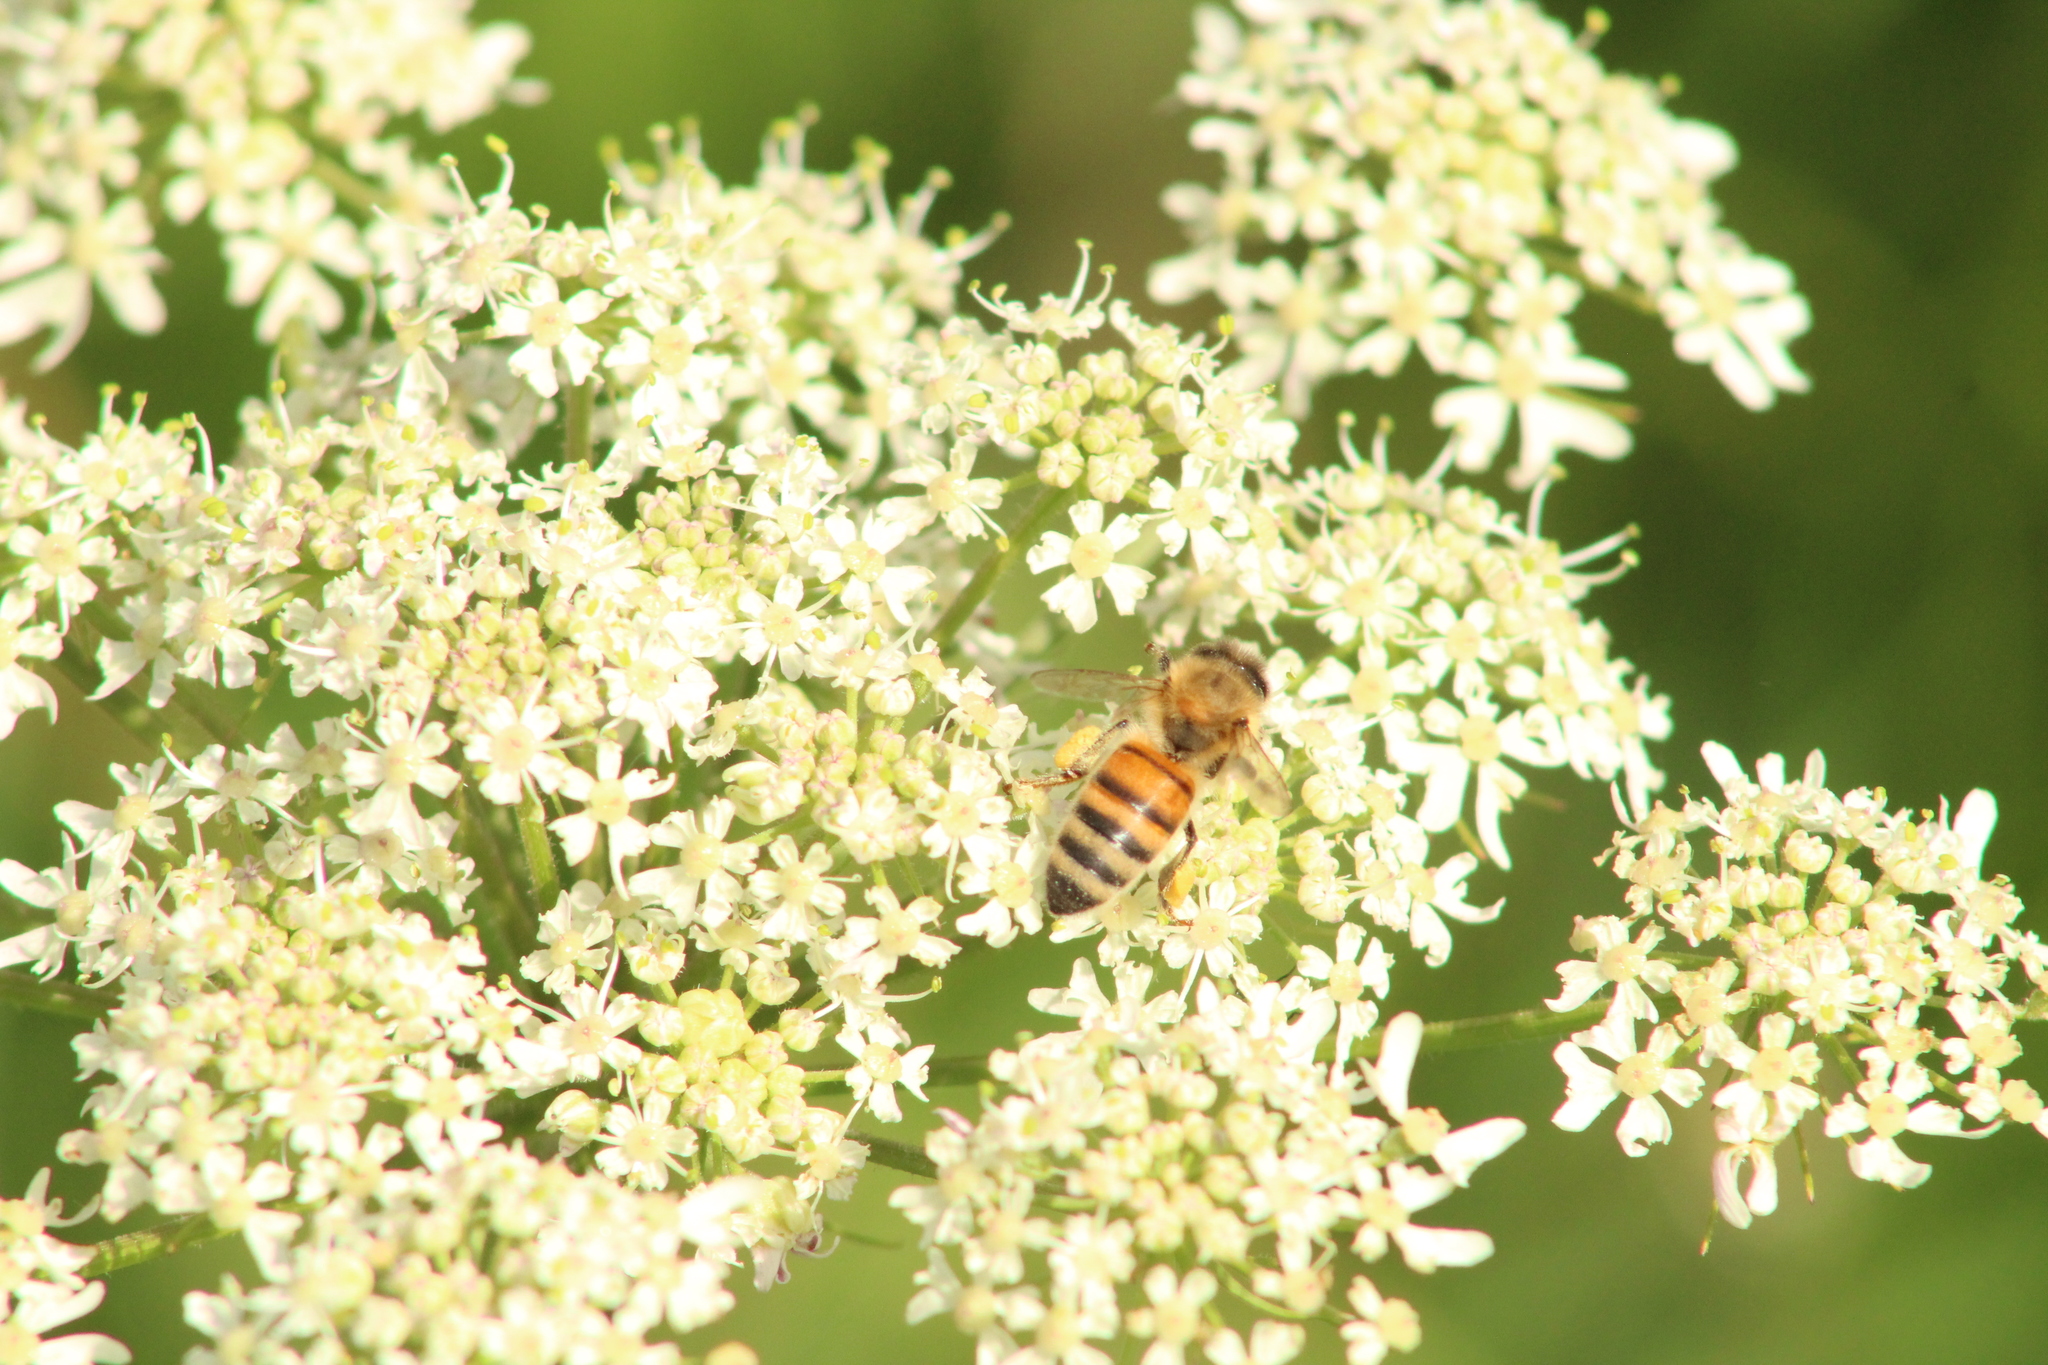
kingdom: Animalia
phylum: Arthropoda
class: Insecta
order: Hymenoptera
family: Apidae
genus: Apis
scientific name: Apis mellifera
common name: Honey bee
